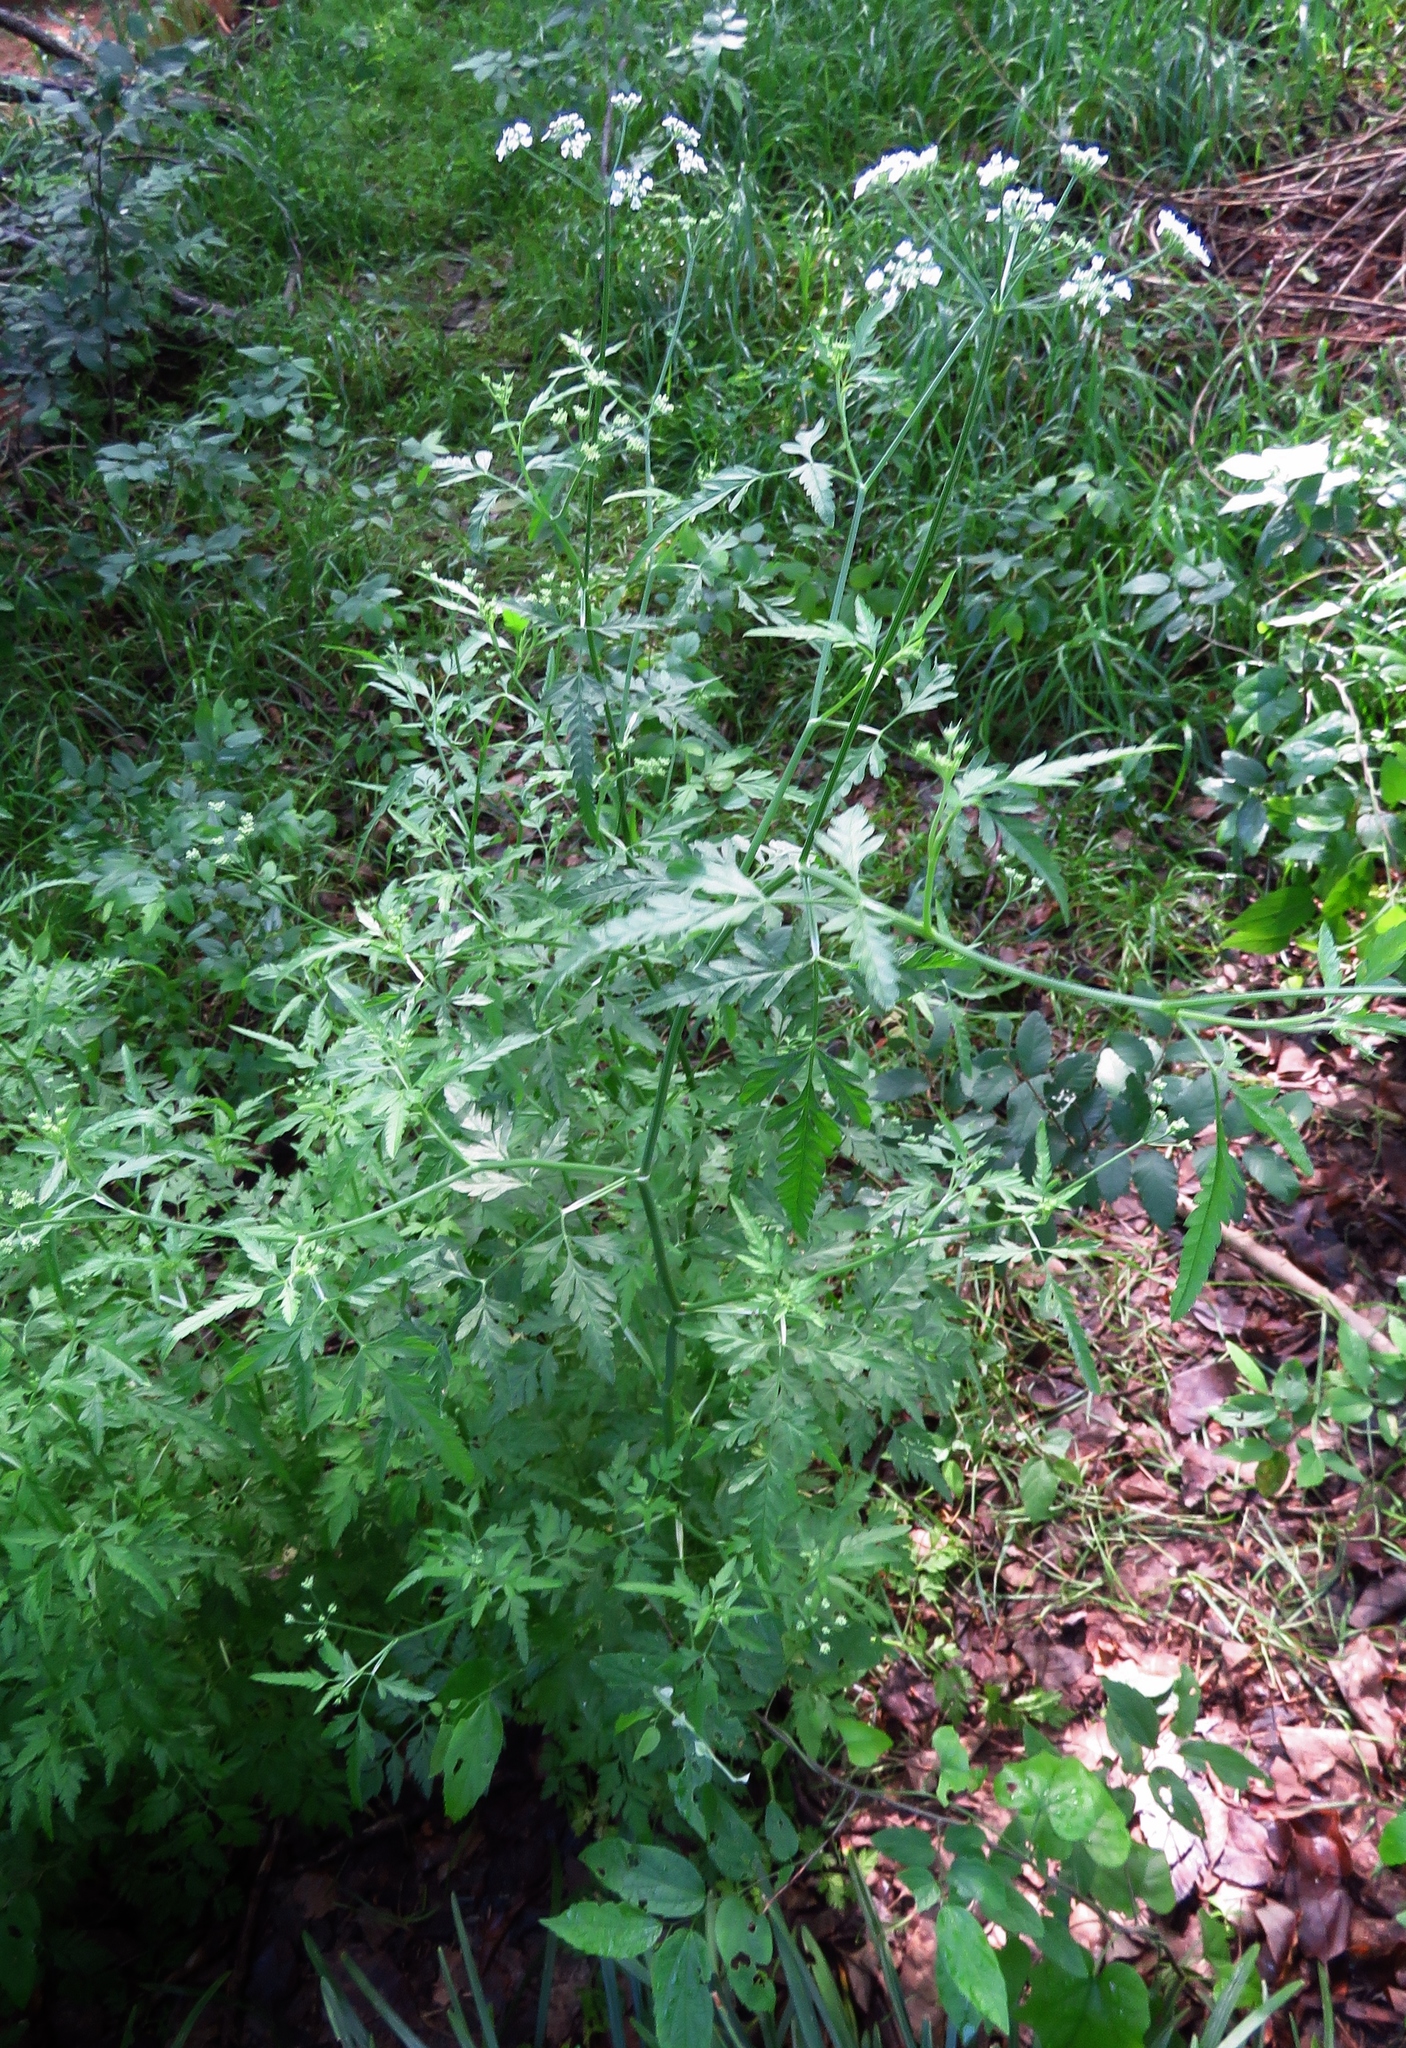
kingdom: Plantae
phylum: Tracheophyta
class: Magnoliopsida
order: Apiales
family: Apiaceae
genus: Torilis
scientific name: Torilis arvensis
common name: Spreading hedge-parsley
